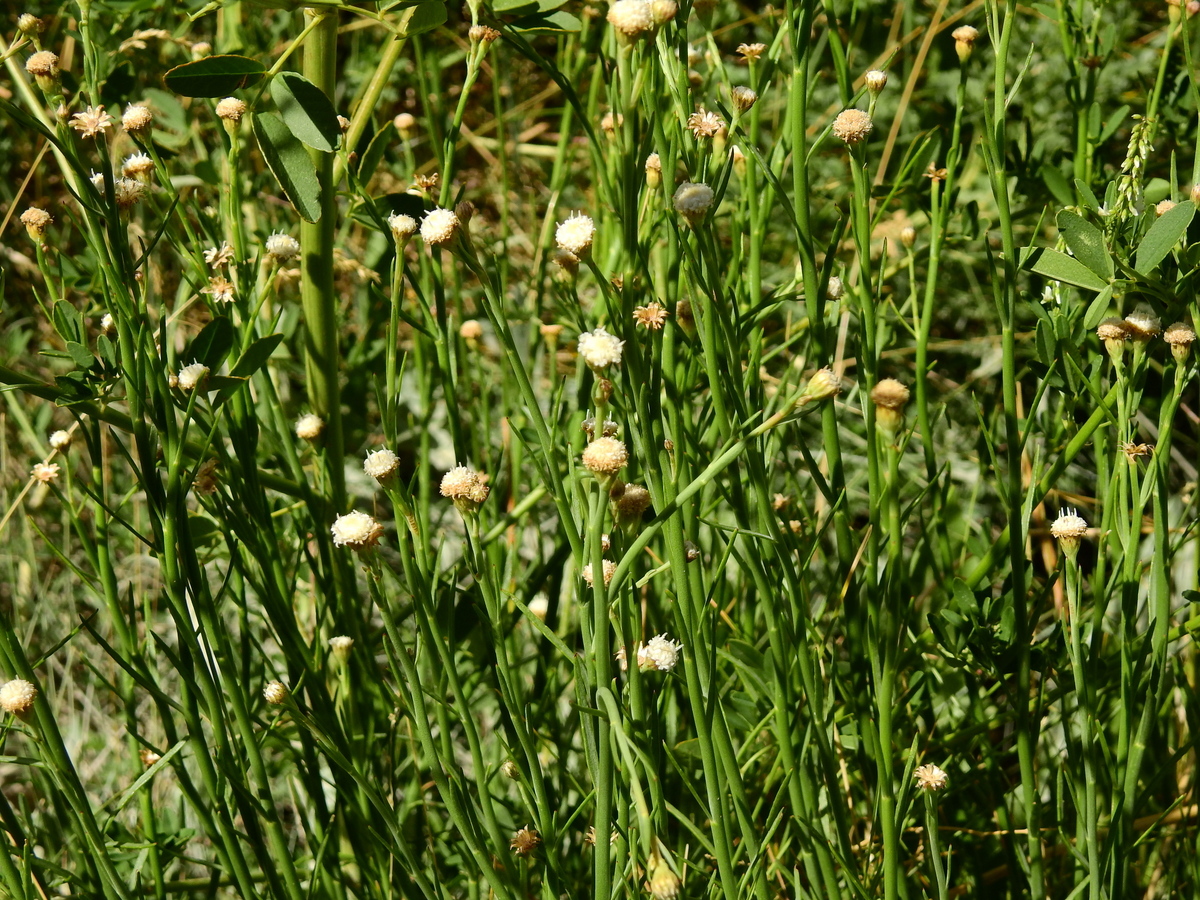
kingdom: Plantae
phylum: Tracheophyta
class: Magnoliopsida
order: Asterales
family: Asteraceae
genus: Baccharis
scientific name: Baccharis juncea
